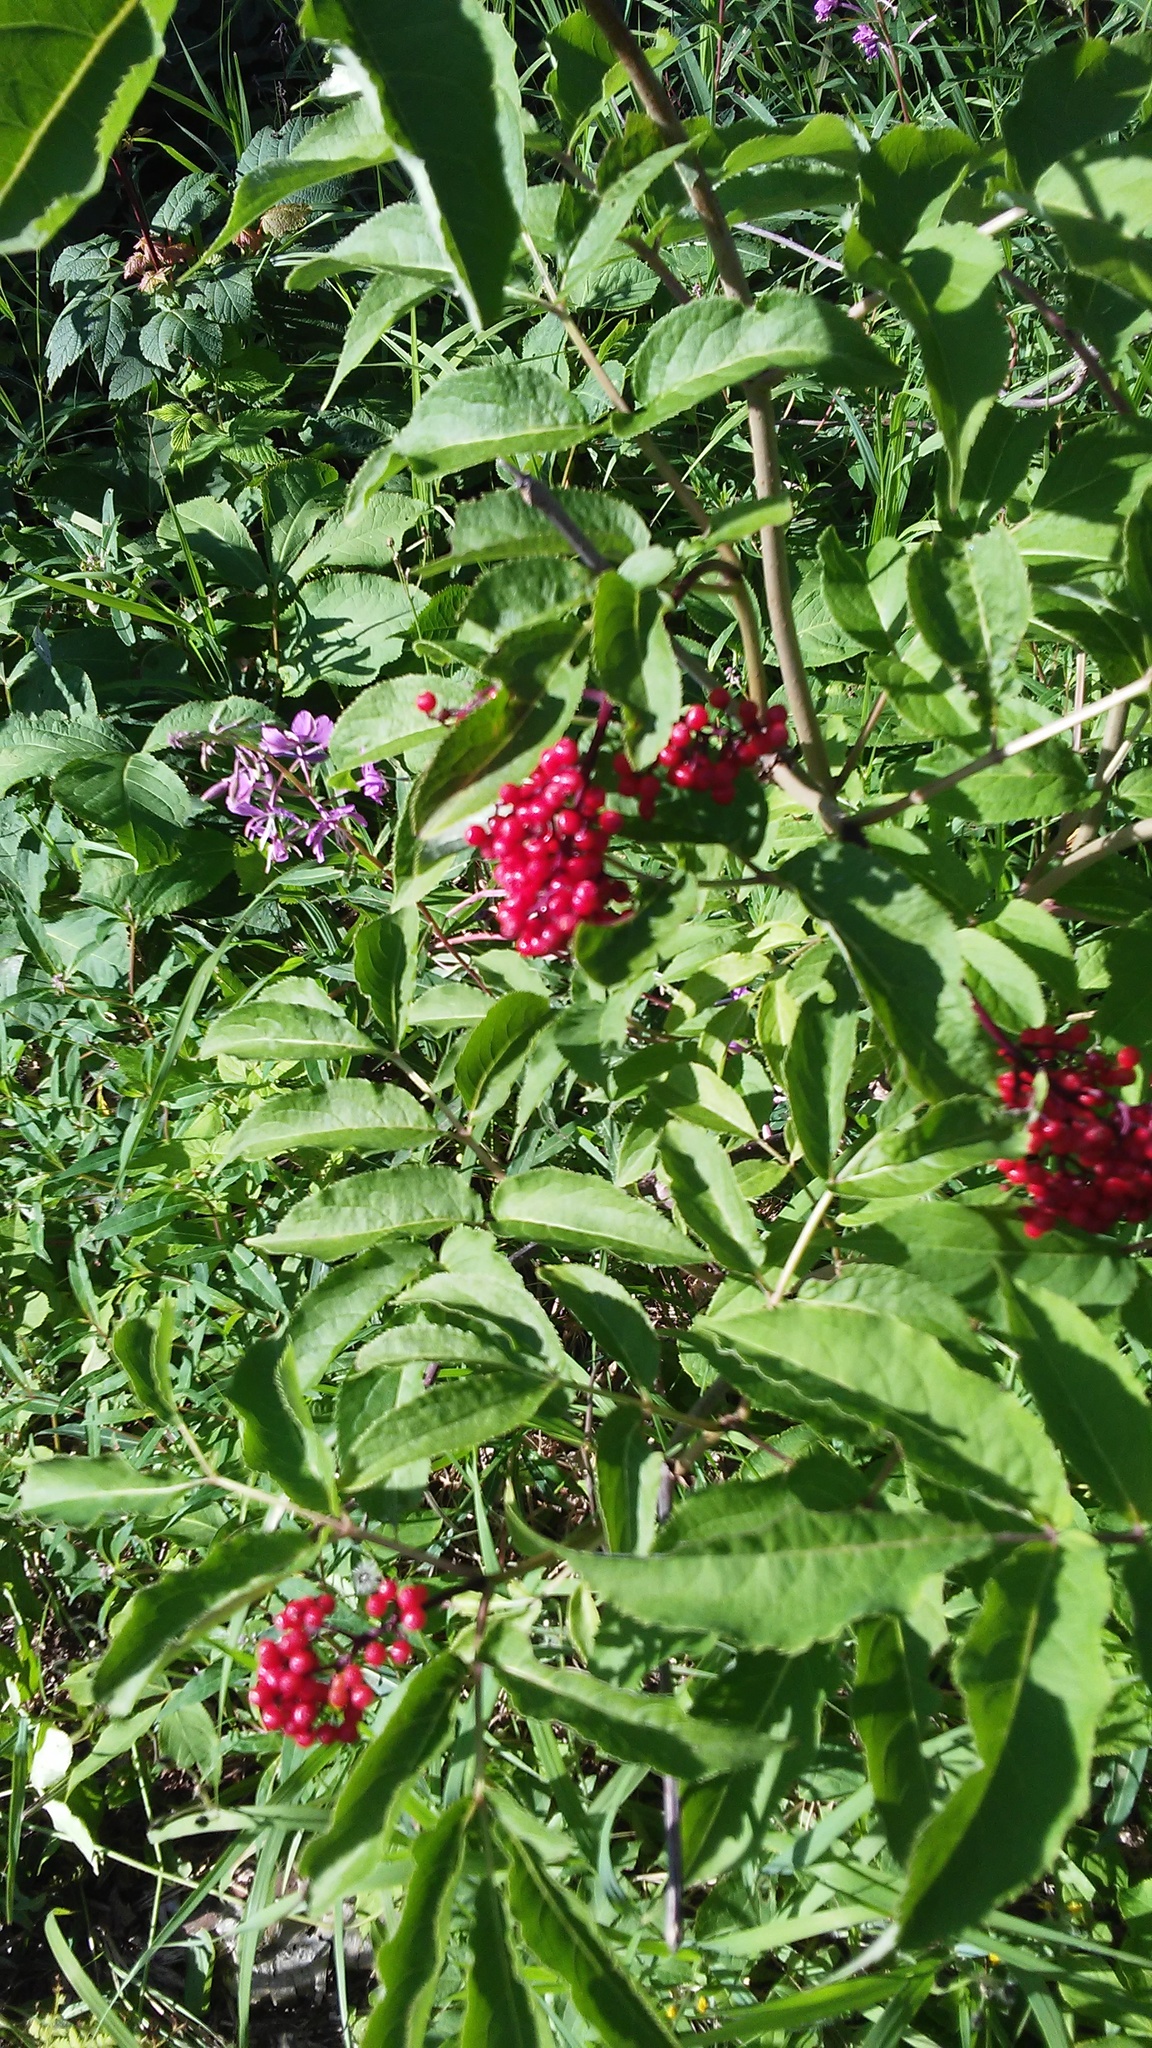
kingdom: Plantae
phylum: Tracheophyta
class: Magnoliopsida
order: Dipsacales
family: Viburnaceae
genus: Sambucus
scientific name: Sambucus racemosa
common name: Red-berried elder
